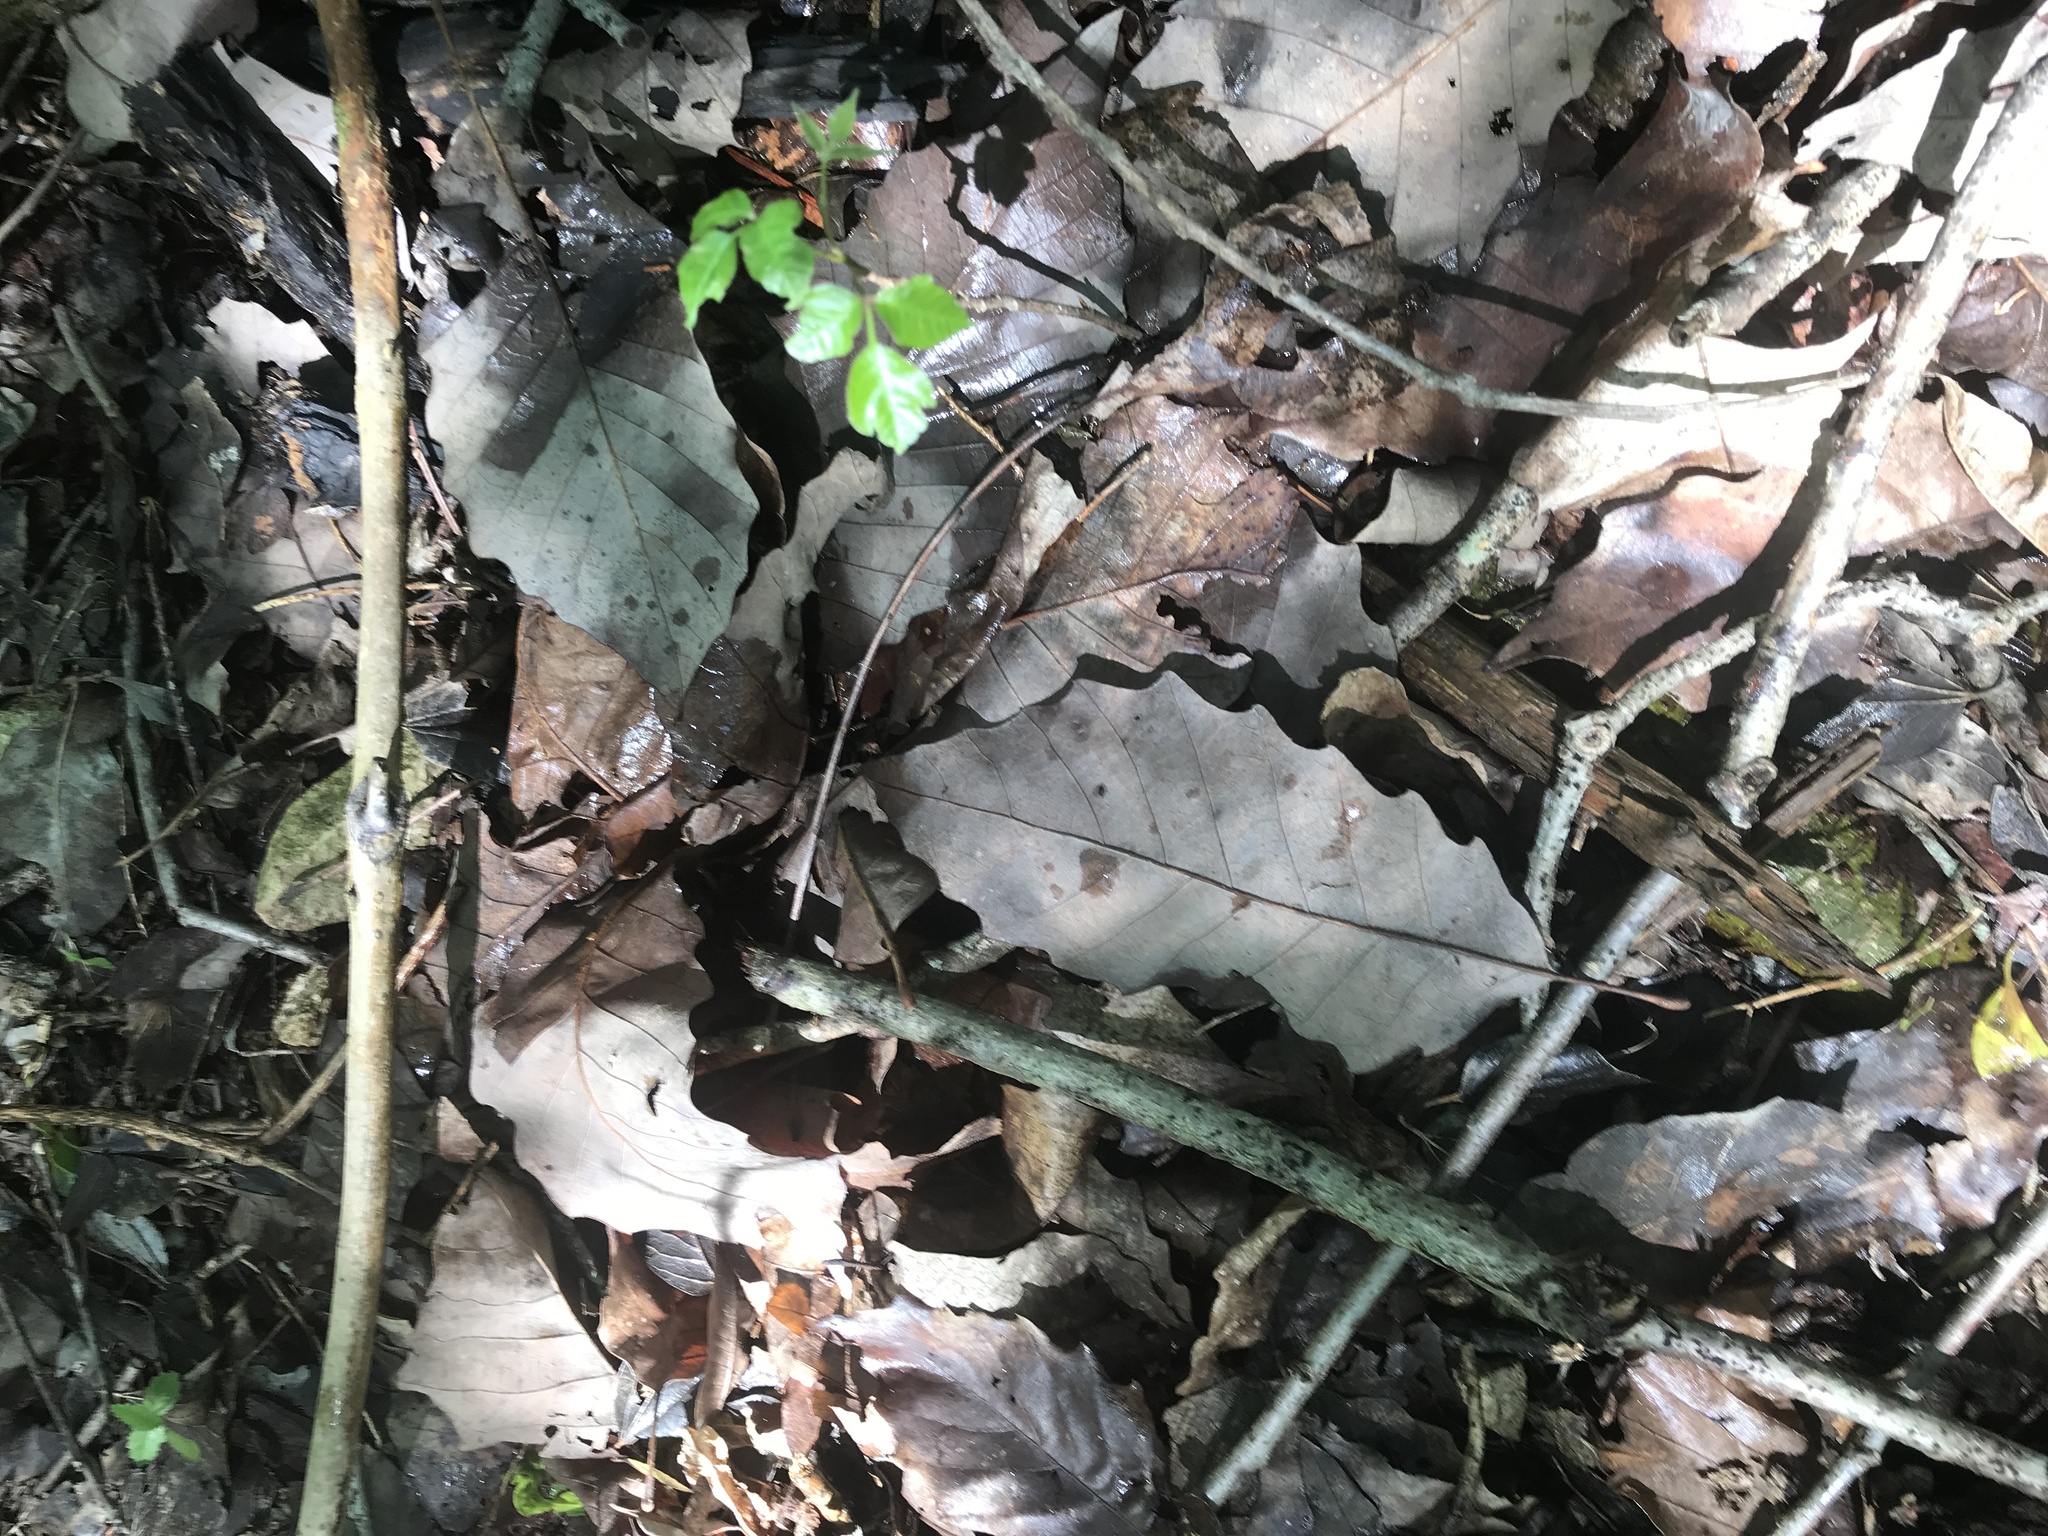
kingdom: Plantae
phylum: Tracheophyta
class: Magnoliopsida
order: Fagales
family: Fagaceae
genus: Quercus
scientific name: Quercus muehlenbergii
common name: Chinkapin oak
